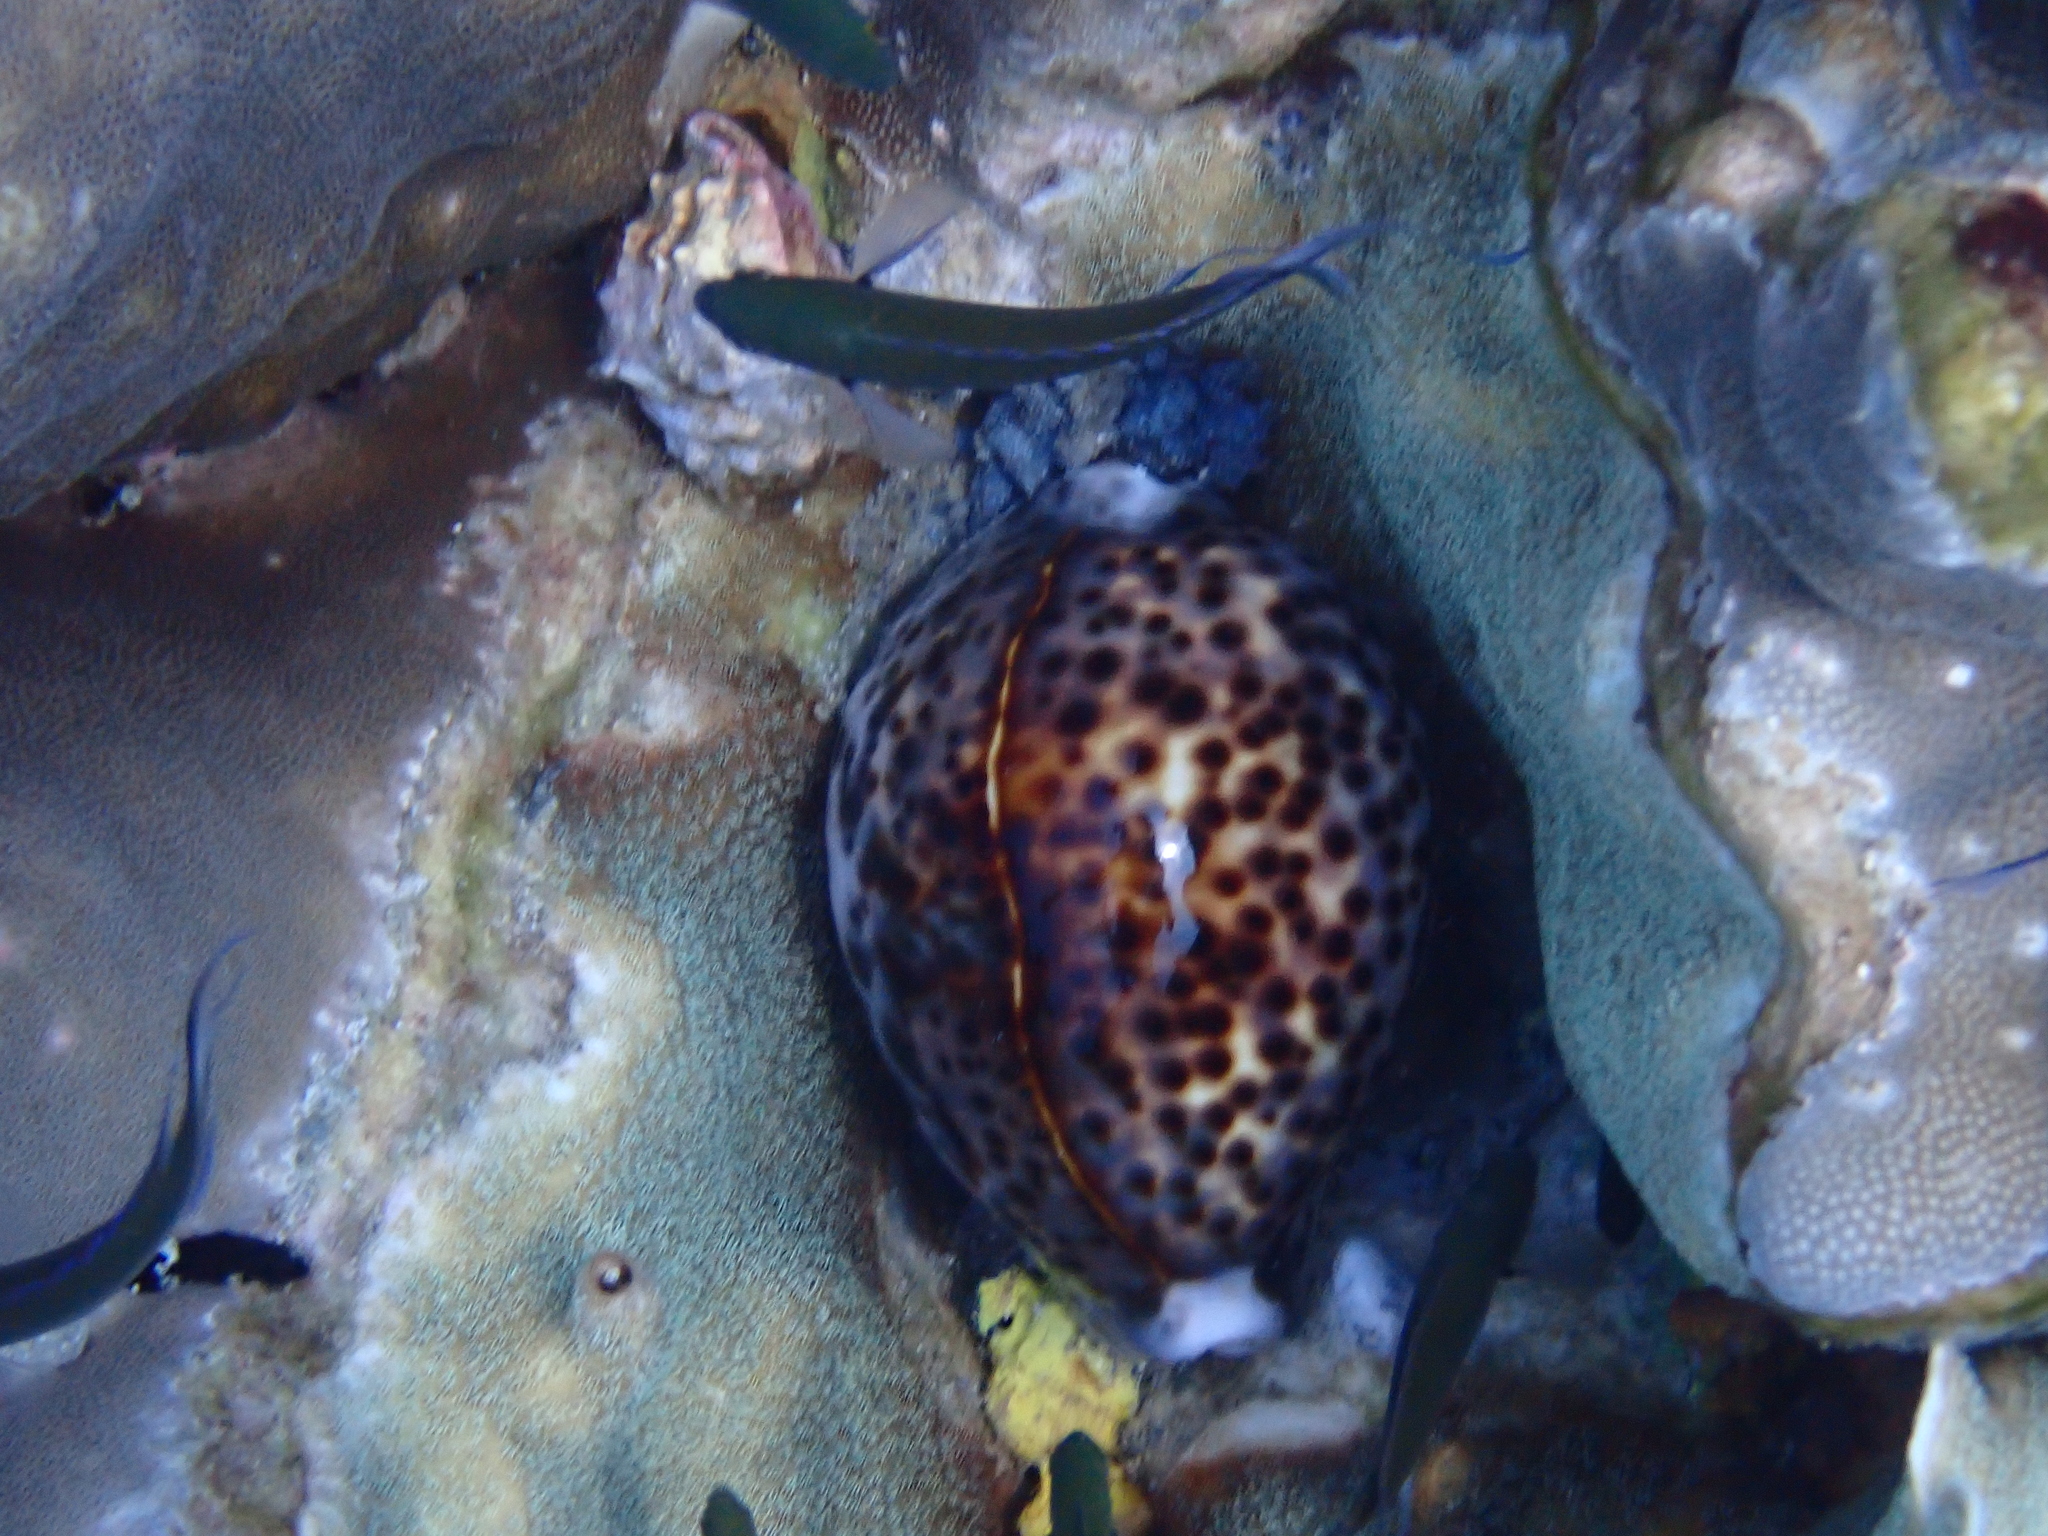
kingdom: Animalia
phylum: Mollusca
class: Gastropoda
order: Littorinimorpha
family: Cypraeidae
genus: Cypraea
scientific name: Cypraea tigris
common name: Tiger cowrie
